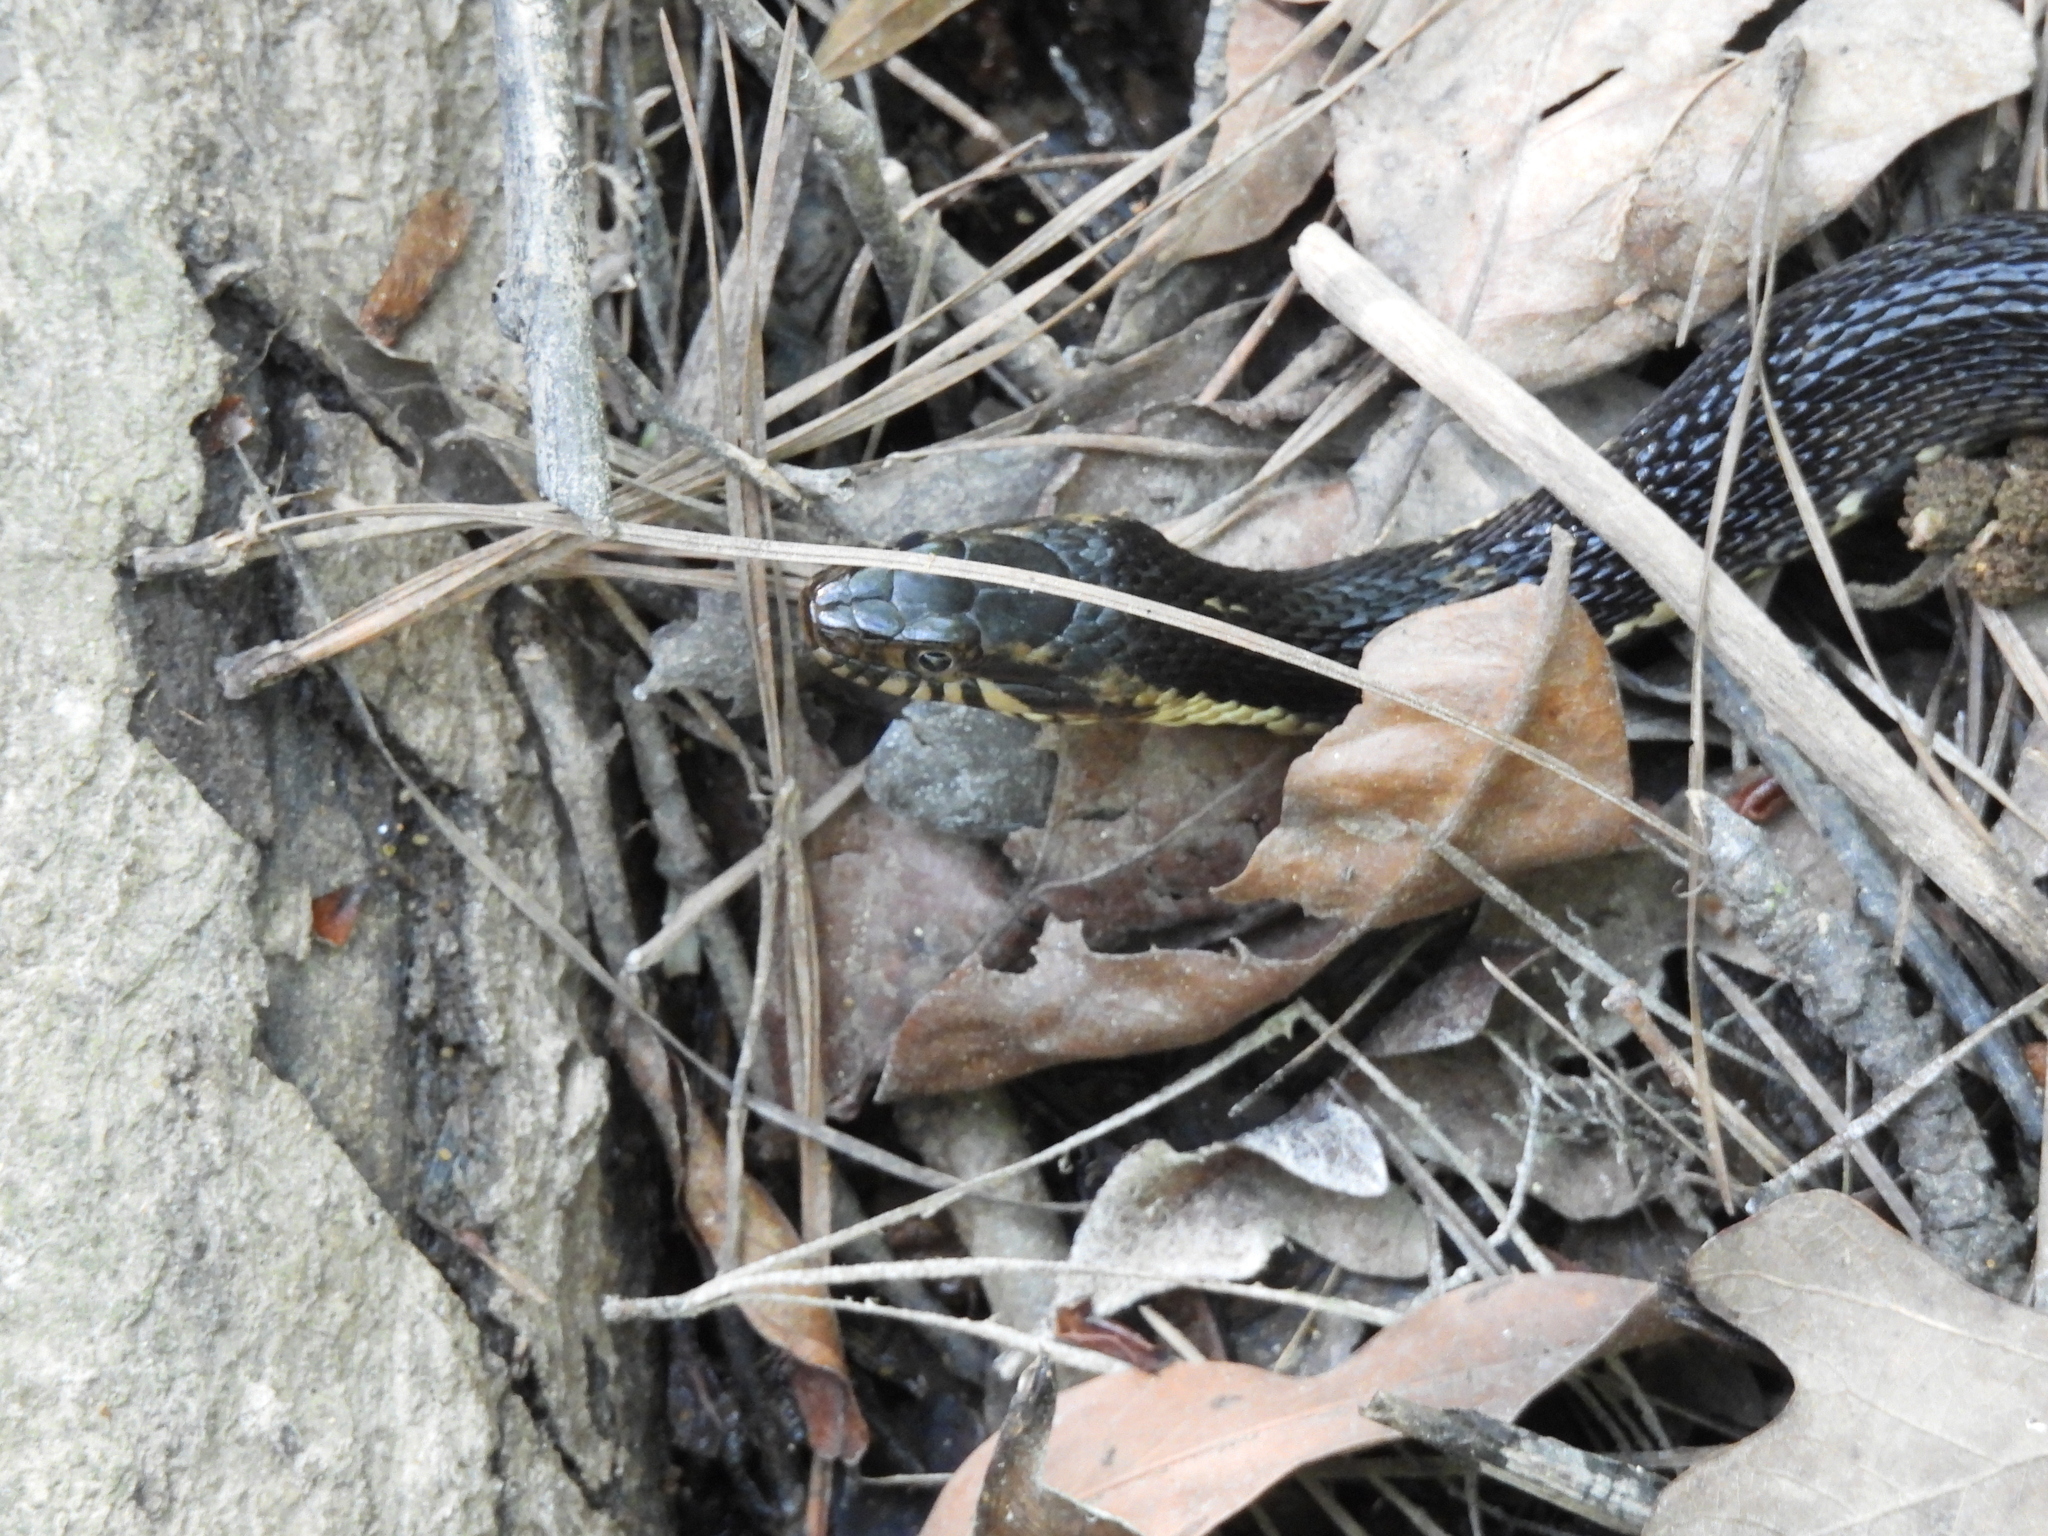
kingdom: Animalia
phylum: Chordata
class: Squamata
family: Colubridae
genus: Nerodia
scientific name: Nerodia fasciata
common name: Southern water snake
